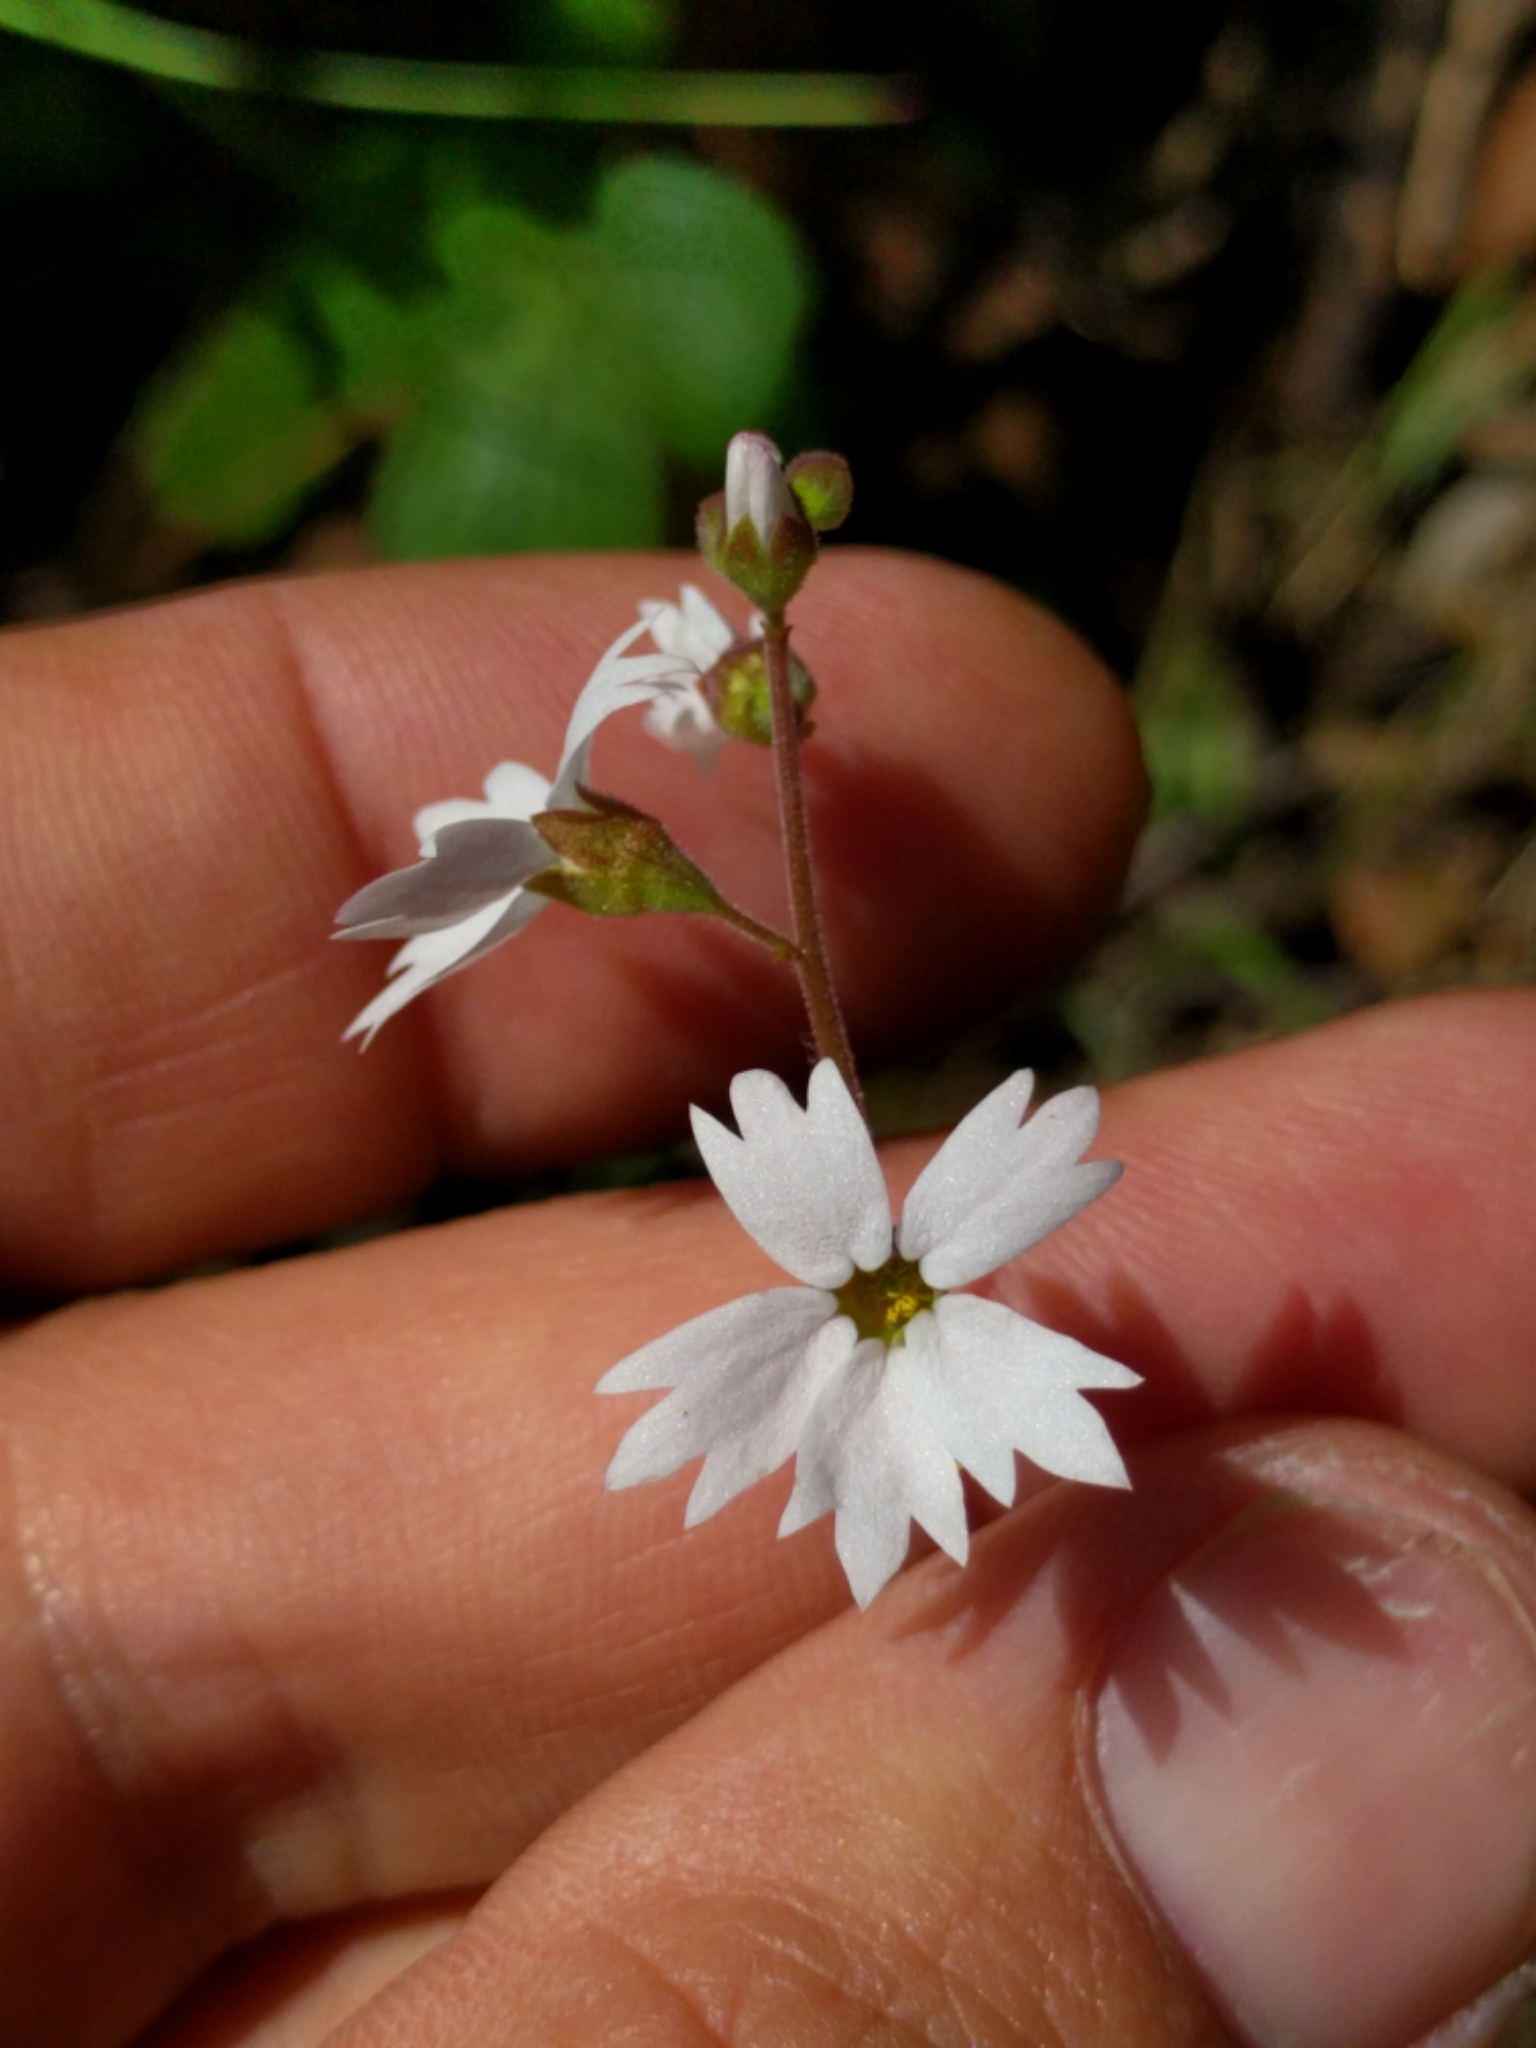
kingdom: Plantae
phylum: Tracheophyta
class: Magnoliopsida
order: Saxifragales
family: Saxifragaceae
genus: Lithophragma
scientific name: Lithophragma affine
